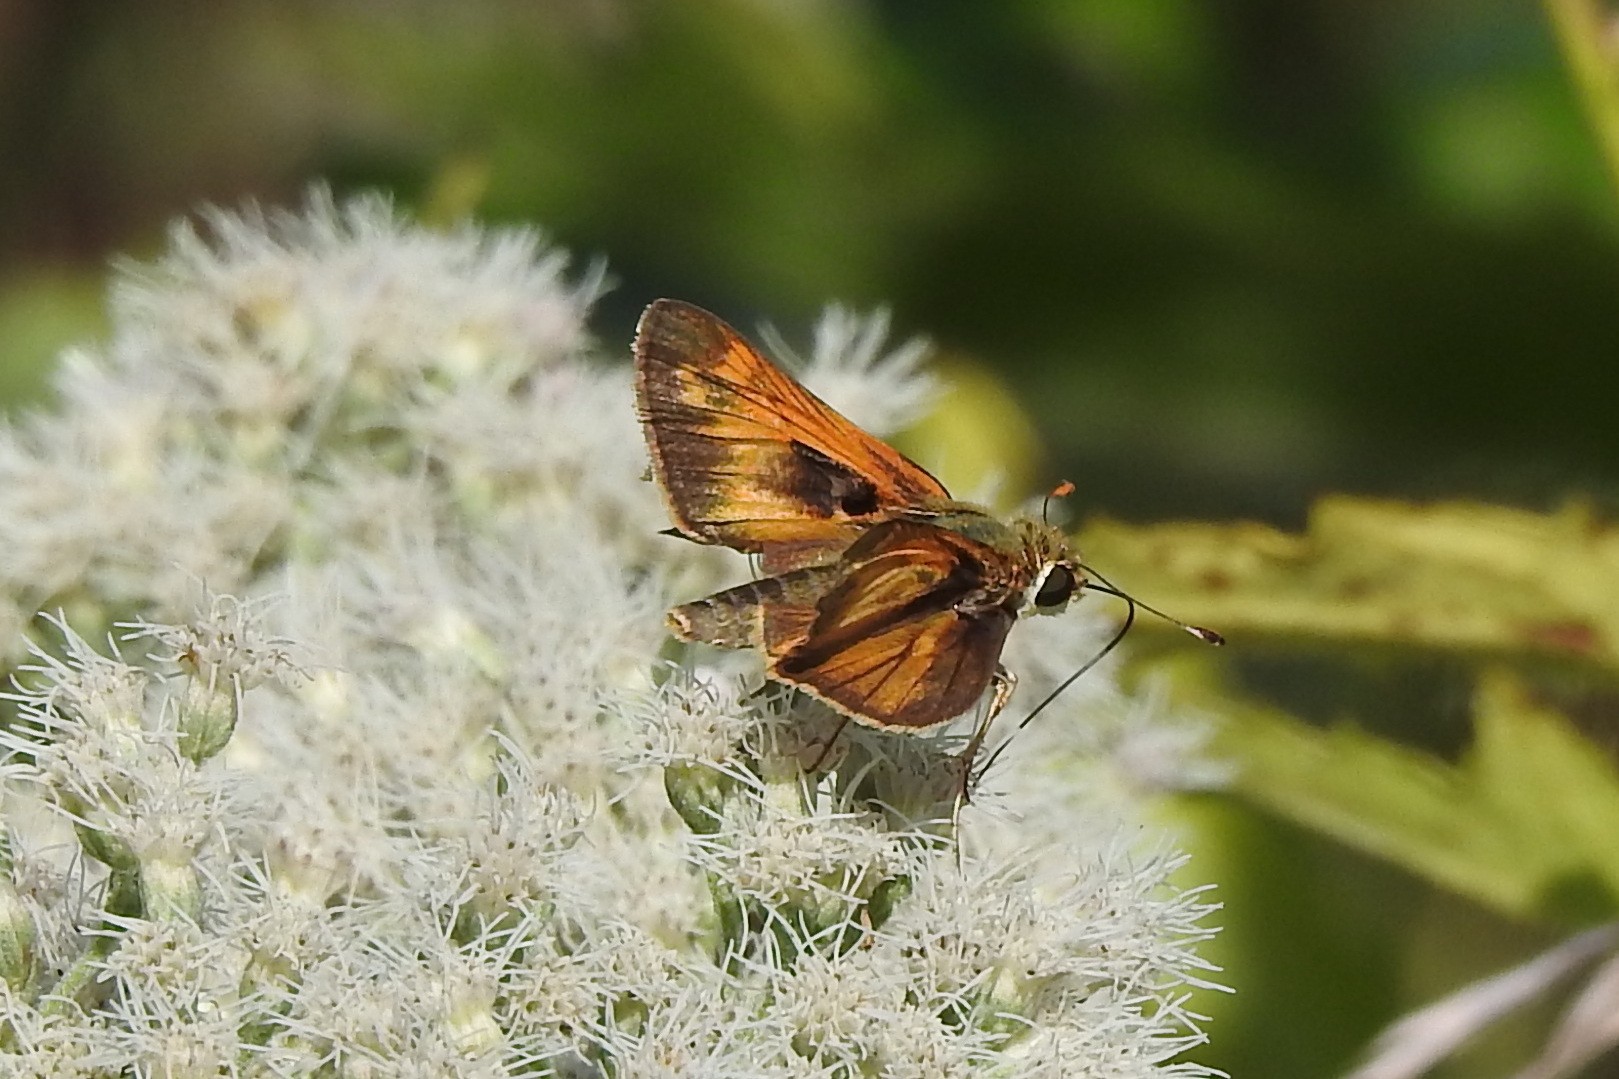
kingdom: Animalia
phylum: Arthropoda
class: Insecta
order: Lepidoptera
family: Hesperiidae
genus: Atalopedes
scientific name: Atalopedes
